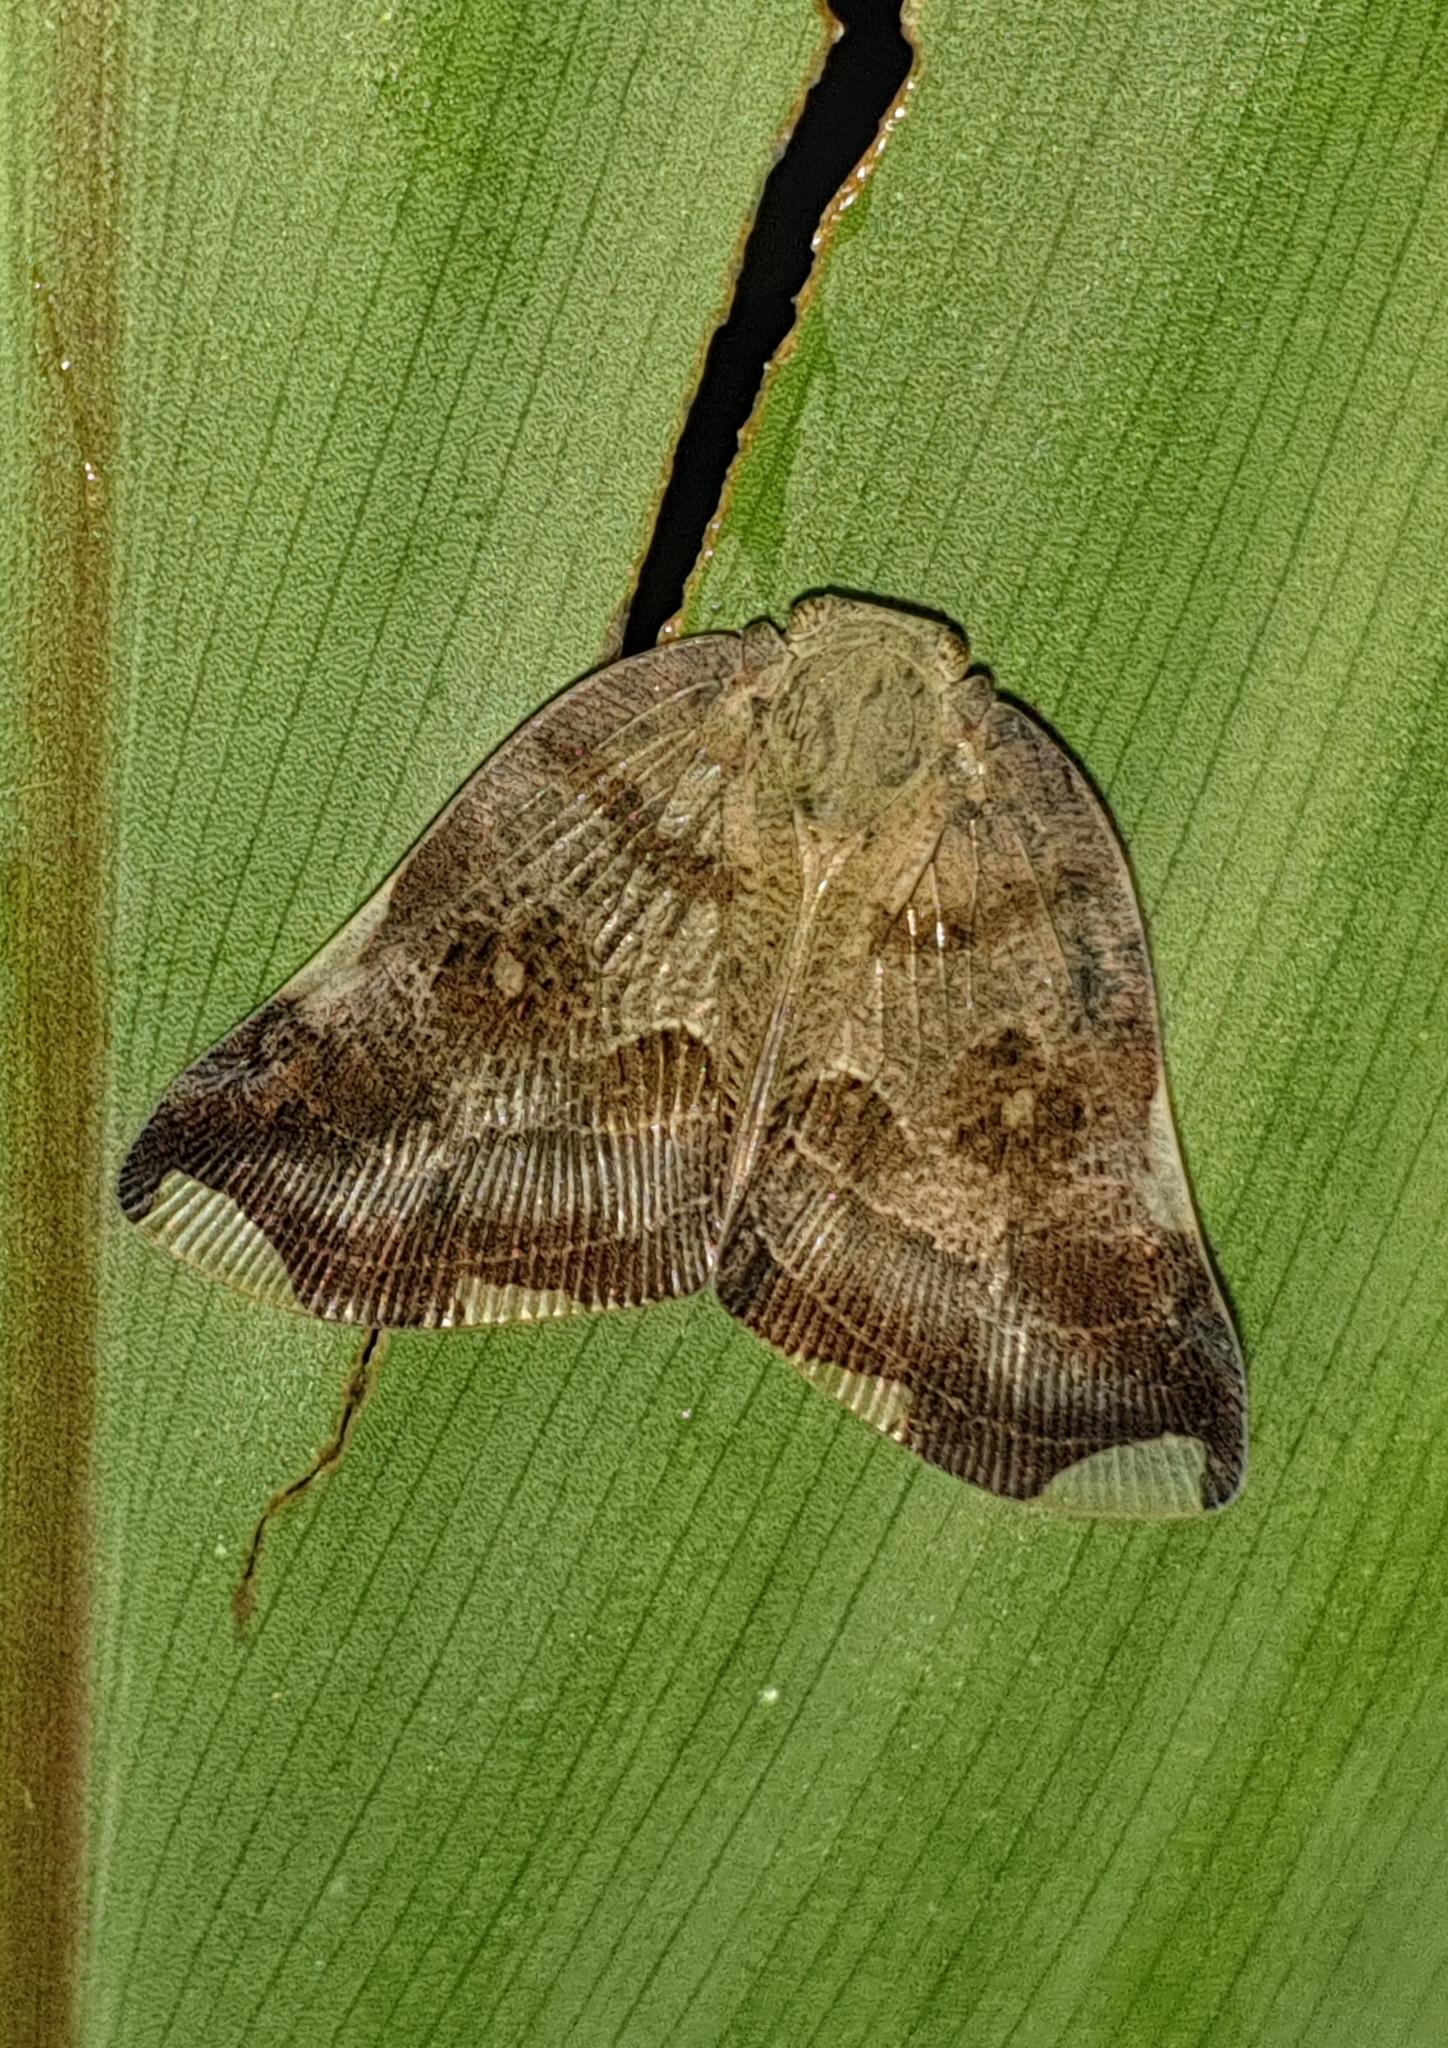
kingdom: Animalia
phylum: Arthropoda
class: Insecta
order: Hemiptera
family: Ricaniidae
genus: Pochazia
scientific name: Pochazia guttifera
